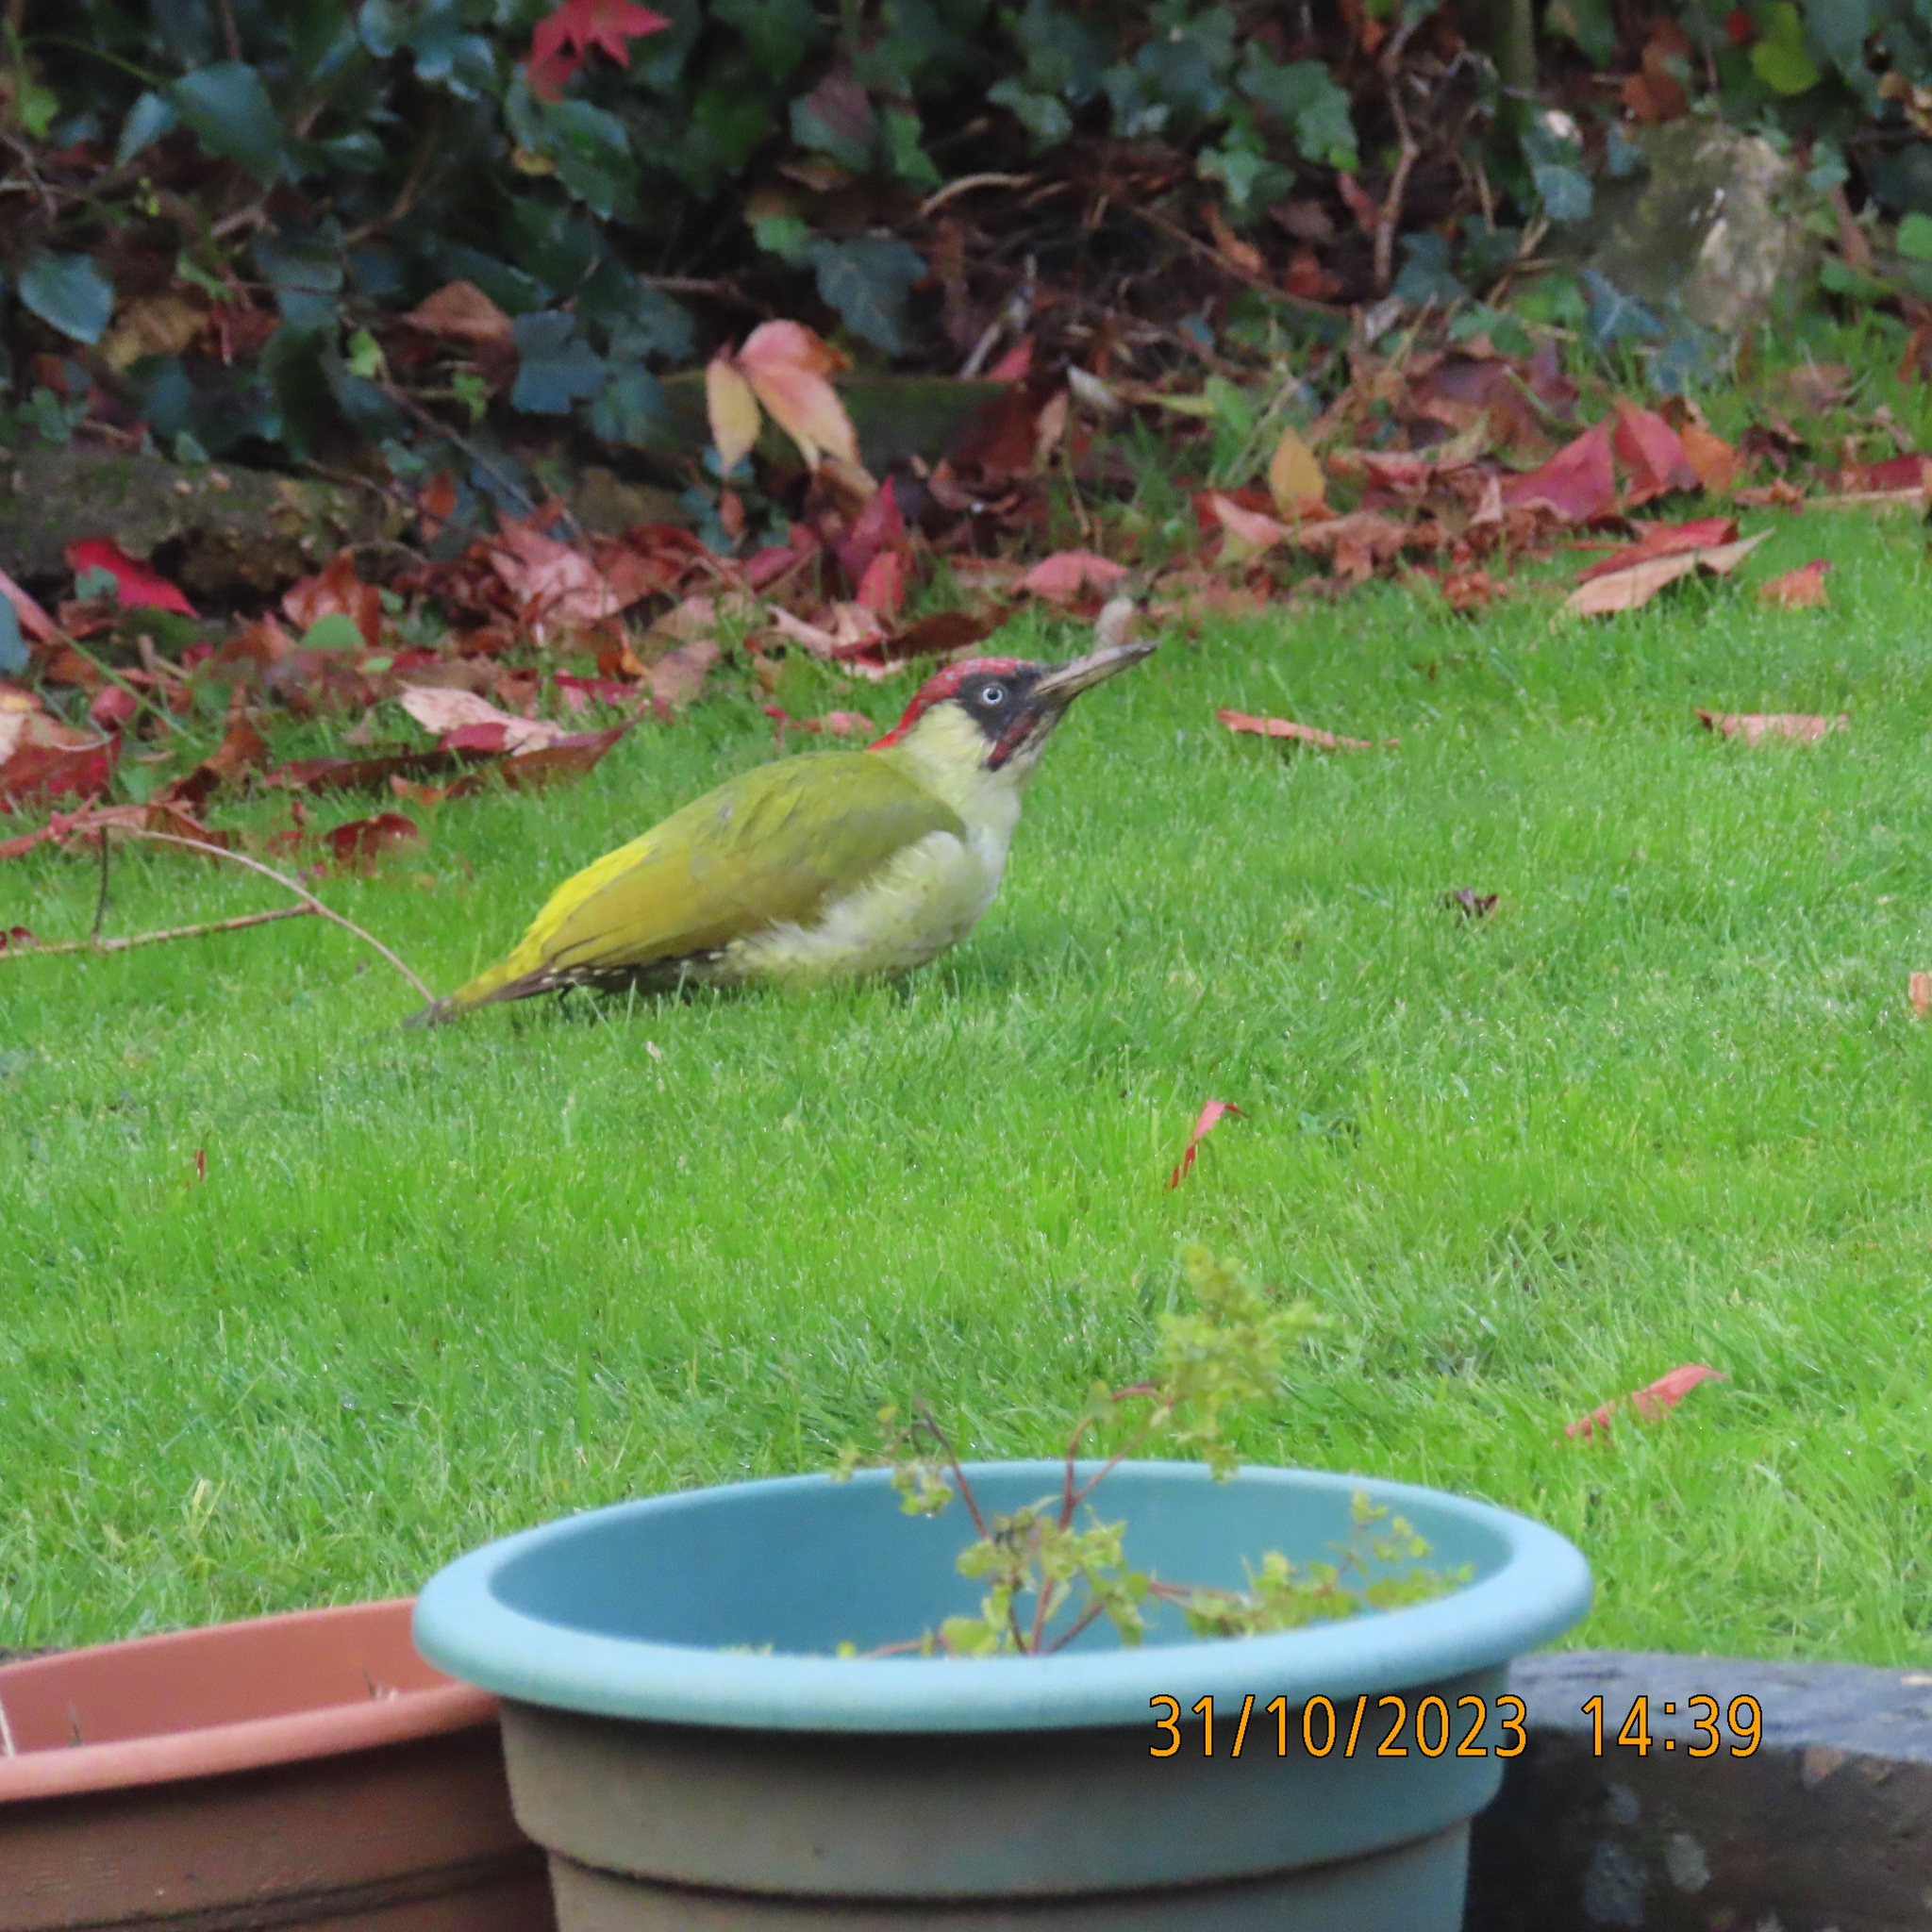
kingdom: Animalia
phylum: Chordata
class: Aves
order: Piciformes
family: Picidae
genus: Picus
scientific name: Picus viridis
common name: European green woodpecker
